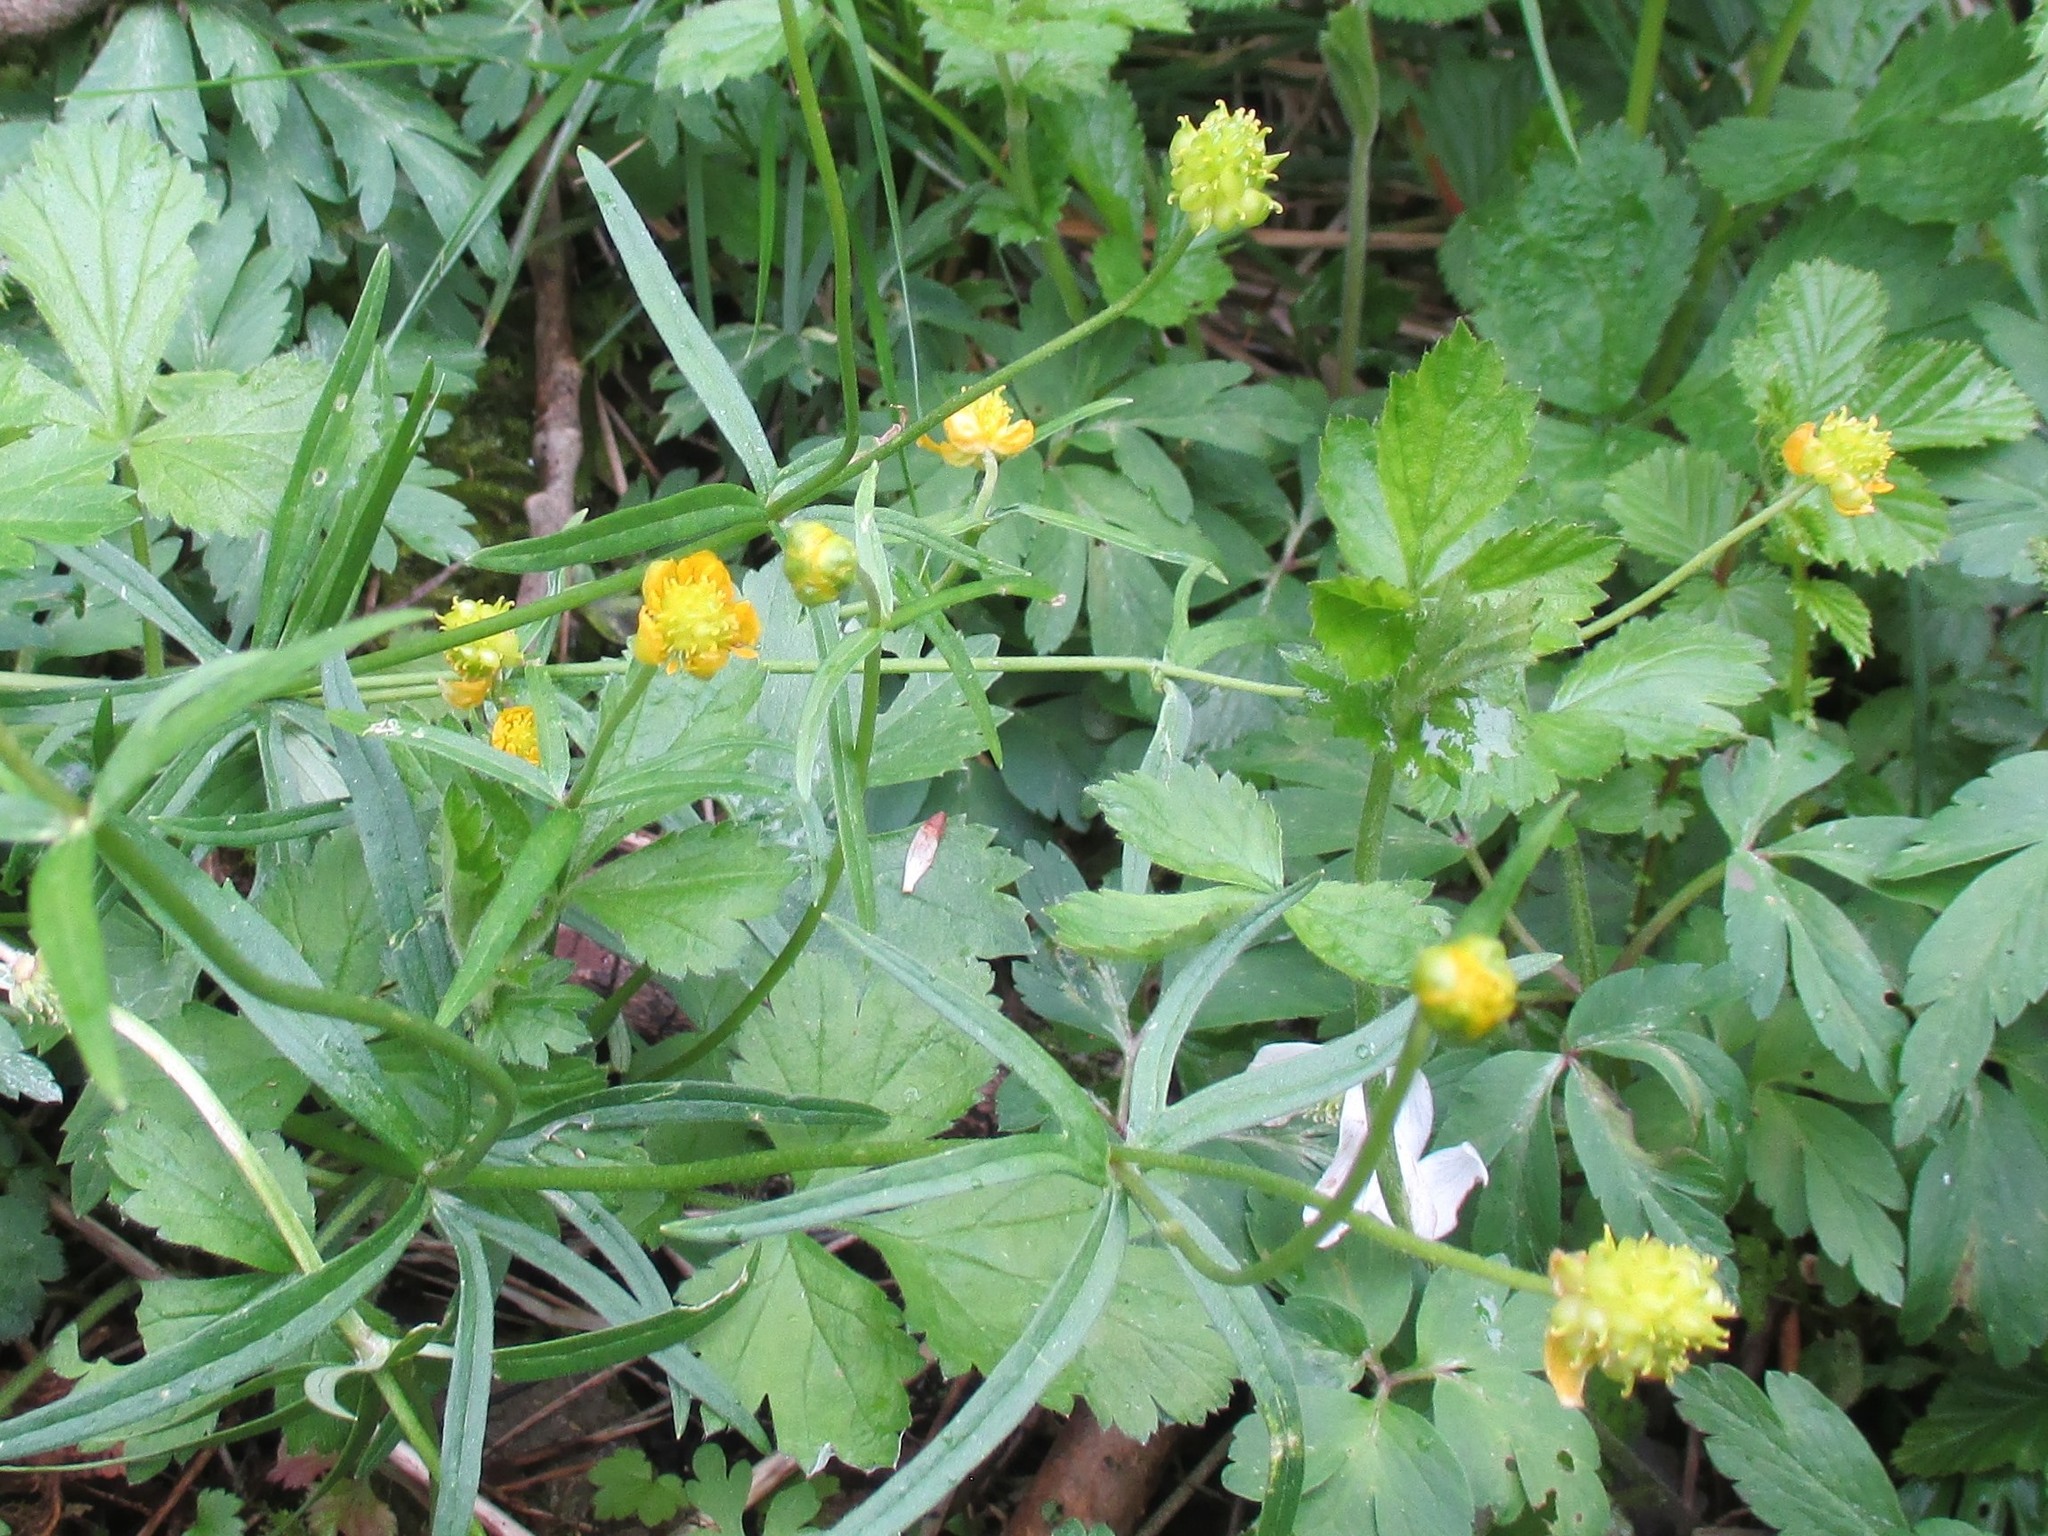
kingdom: Plantae
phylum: Tracheophyta
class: Magnoliopsida
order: Ranunculales
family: Ranunculaceae
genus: Ranunculus
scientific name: Ranunculus auricomus
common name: Goldilocks buttercup
